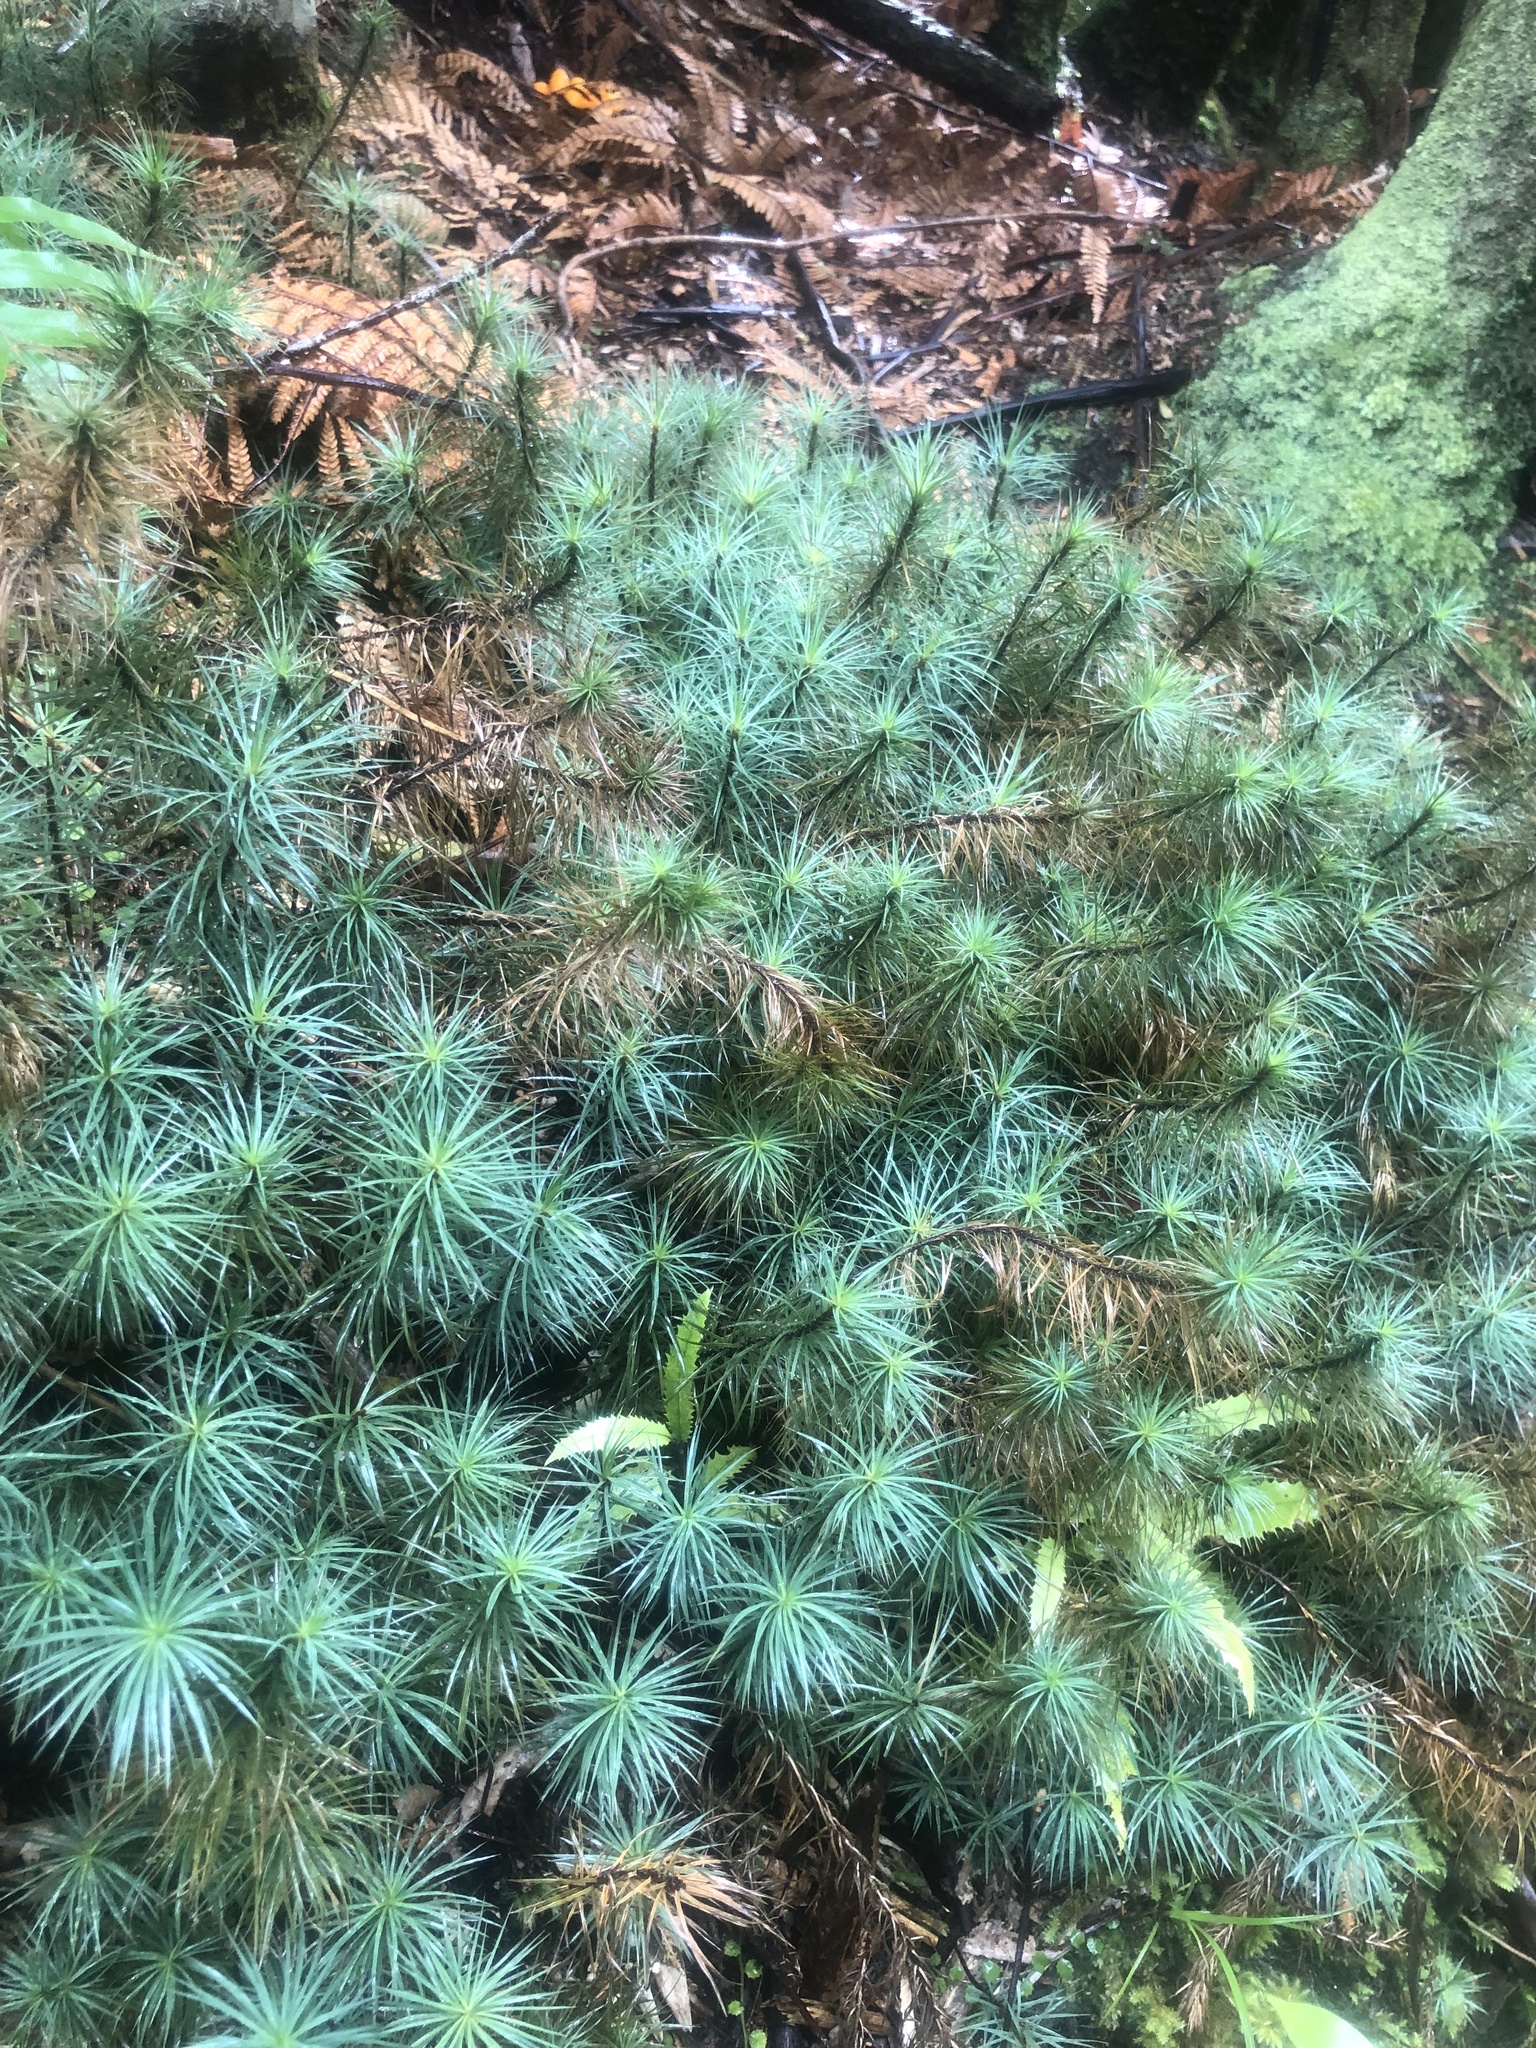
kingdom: Plantae
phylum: Bryophyta
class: Polytrichopsida
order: Polytrichales
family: Polytrichaceae
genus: Dawsonia
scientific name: Dawsonia superba
